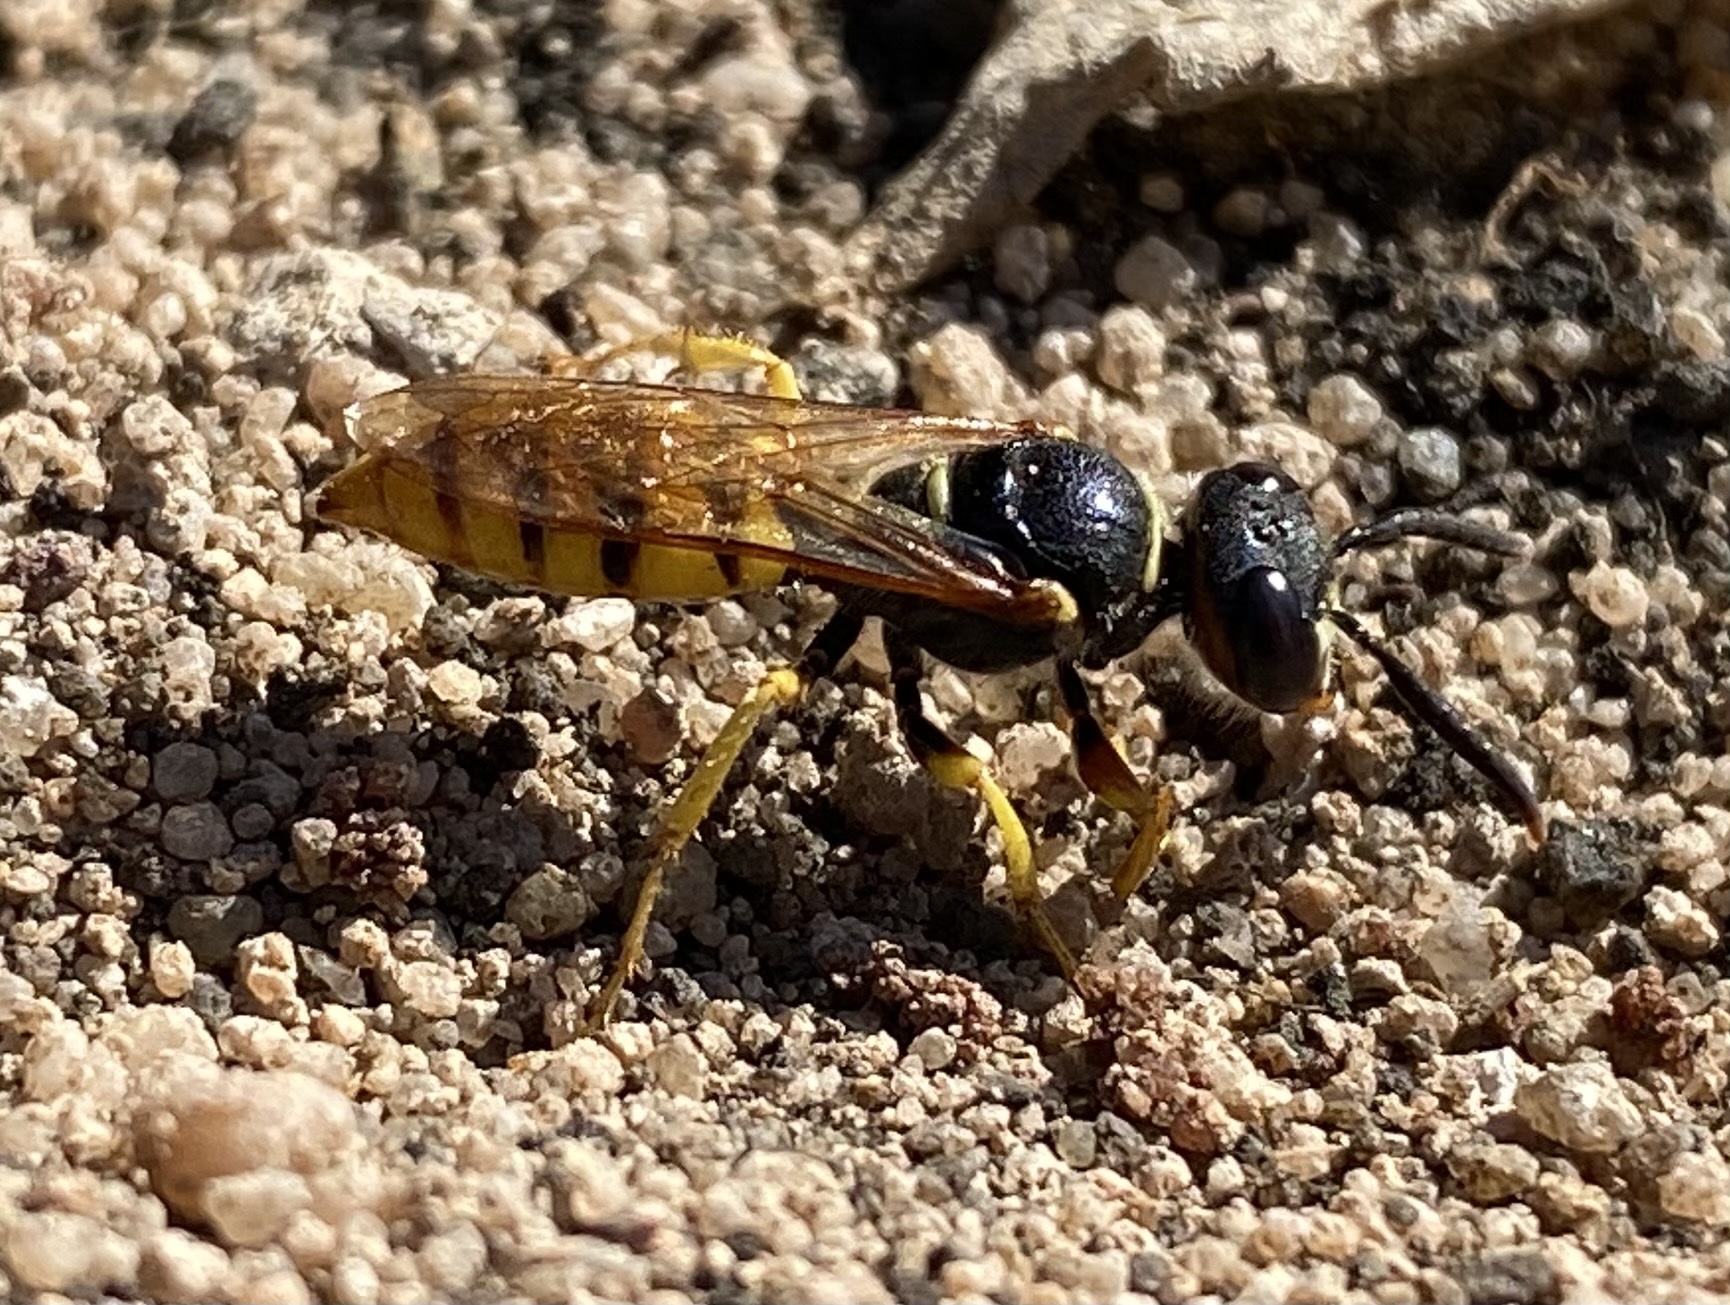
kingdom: Animalia
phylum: Arthropoda
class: Insecta
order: Hymenoptera
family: Crabronidae
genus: Philanthus
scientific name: Philanthus triangulum
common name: Bee wolf
